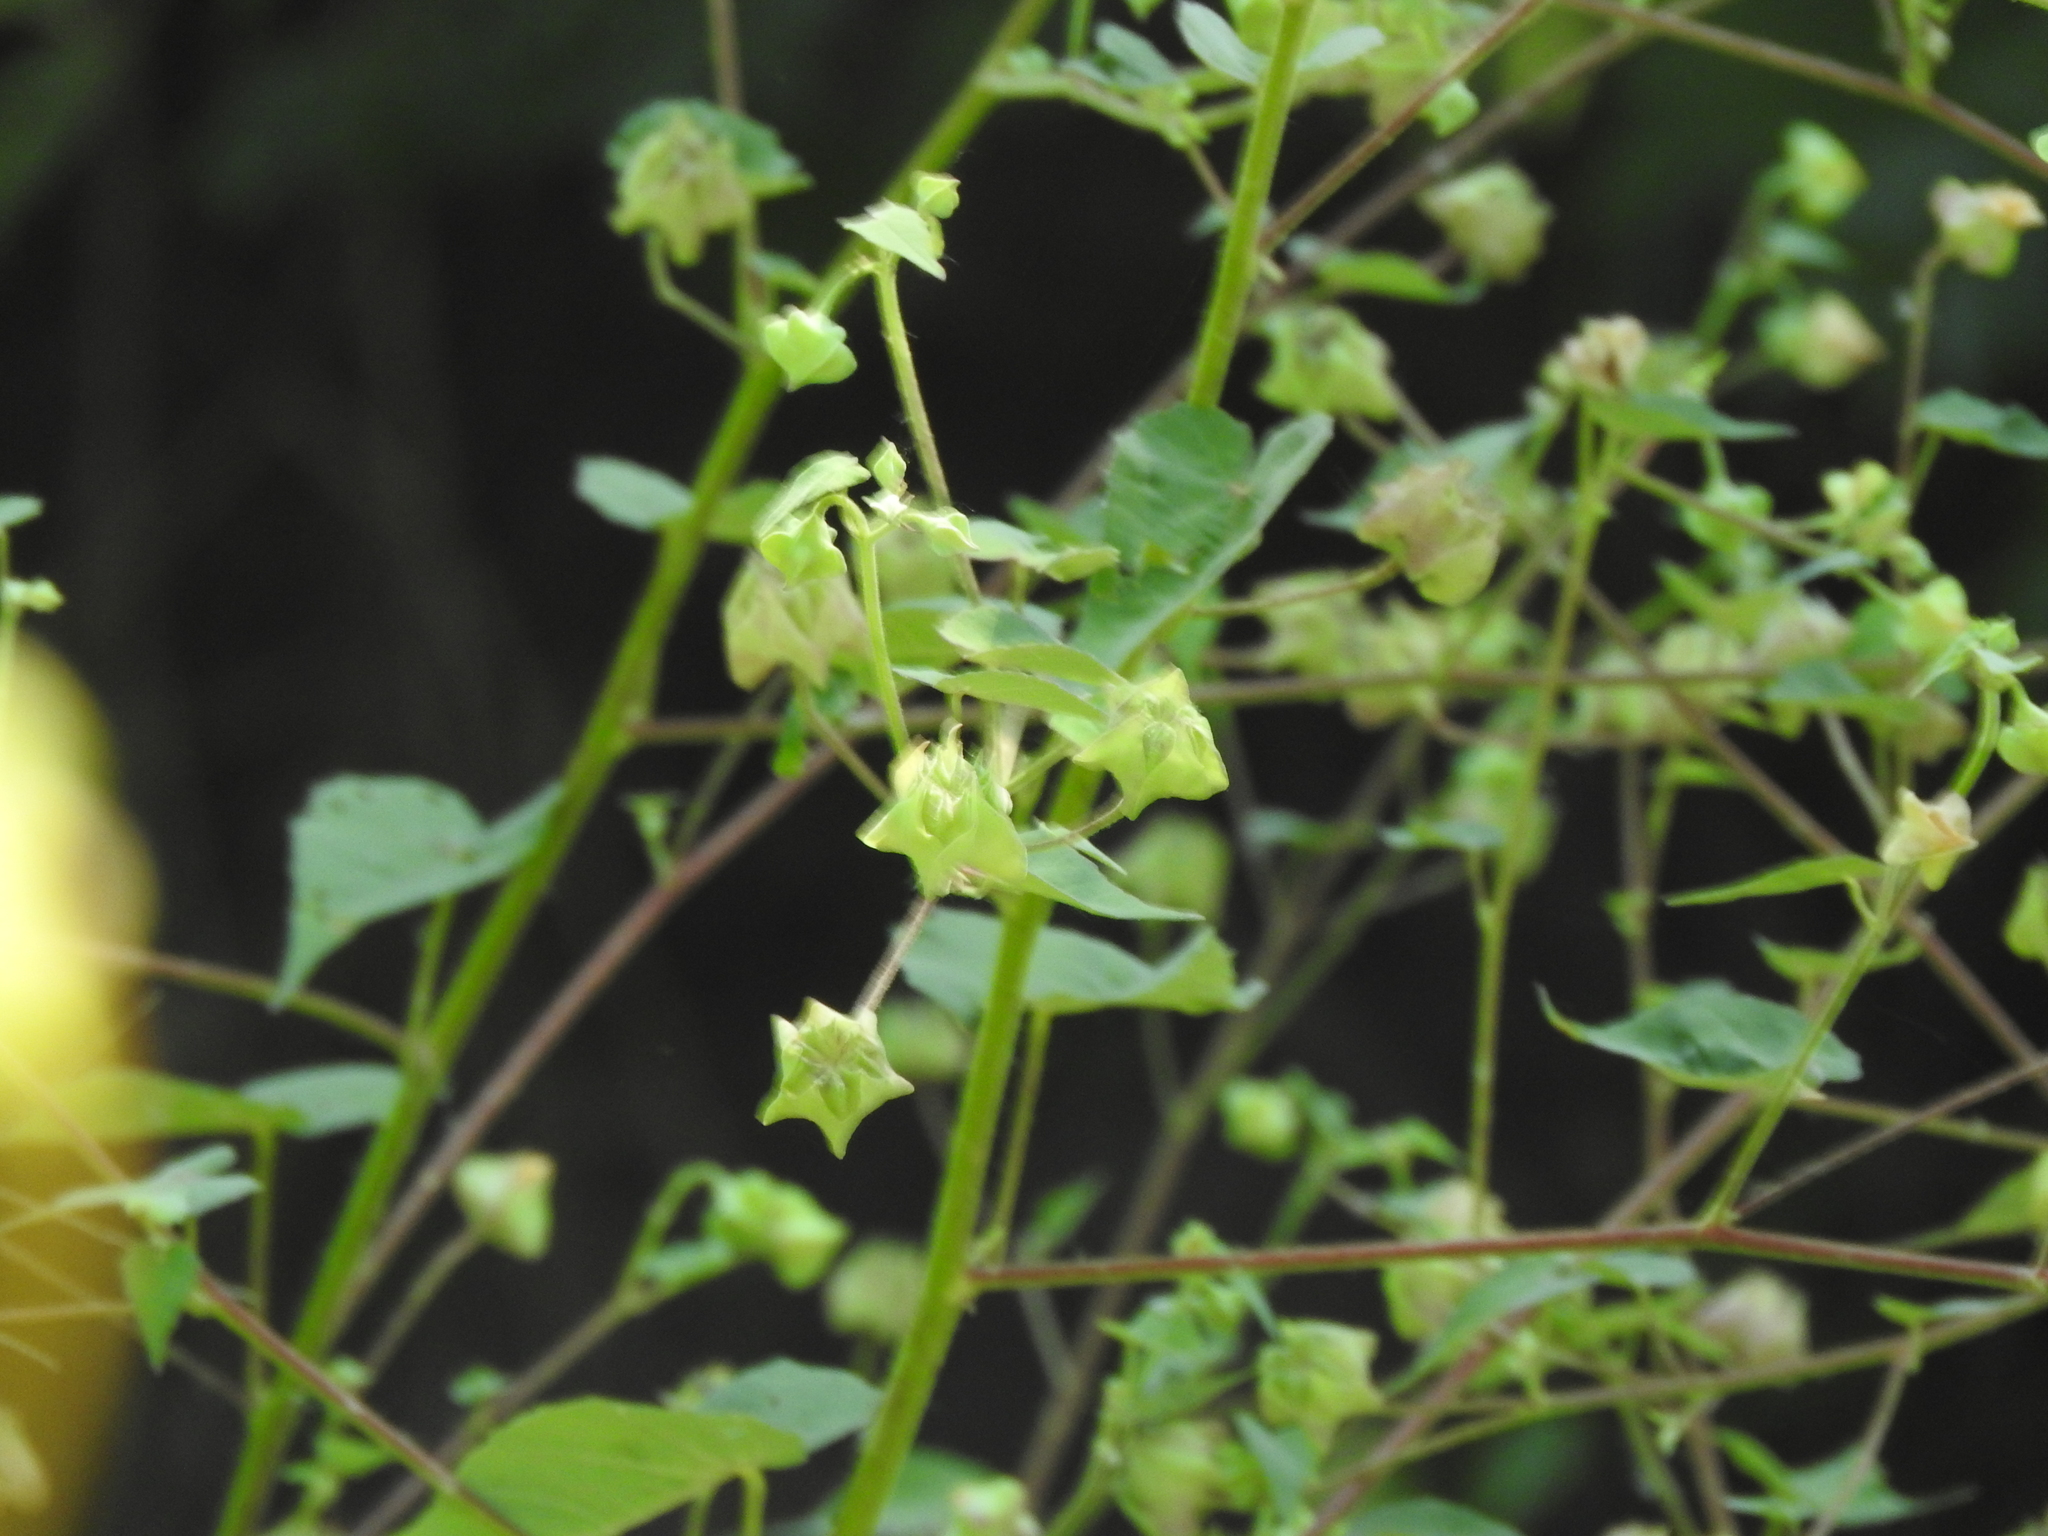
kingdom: Plantae
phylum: Tracheophyta
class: Magnoliopsida
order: Solanales
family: Solanaceae
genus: Jaltomata
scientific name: Jaltomata procumbens
